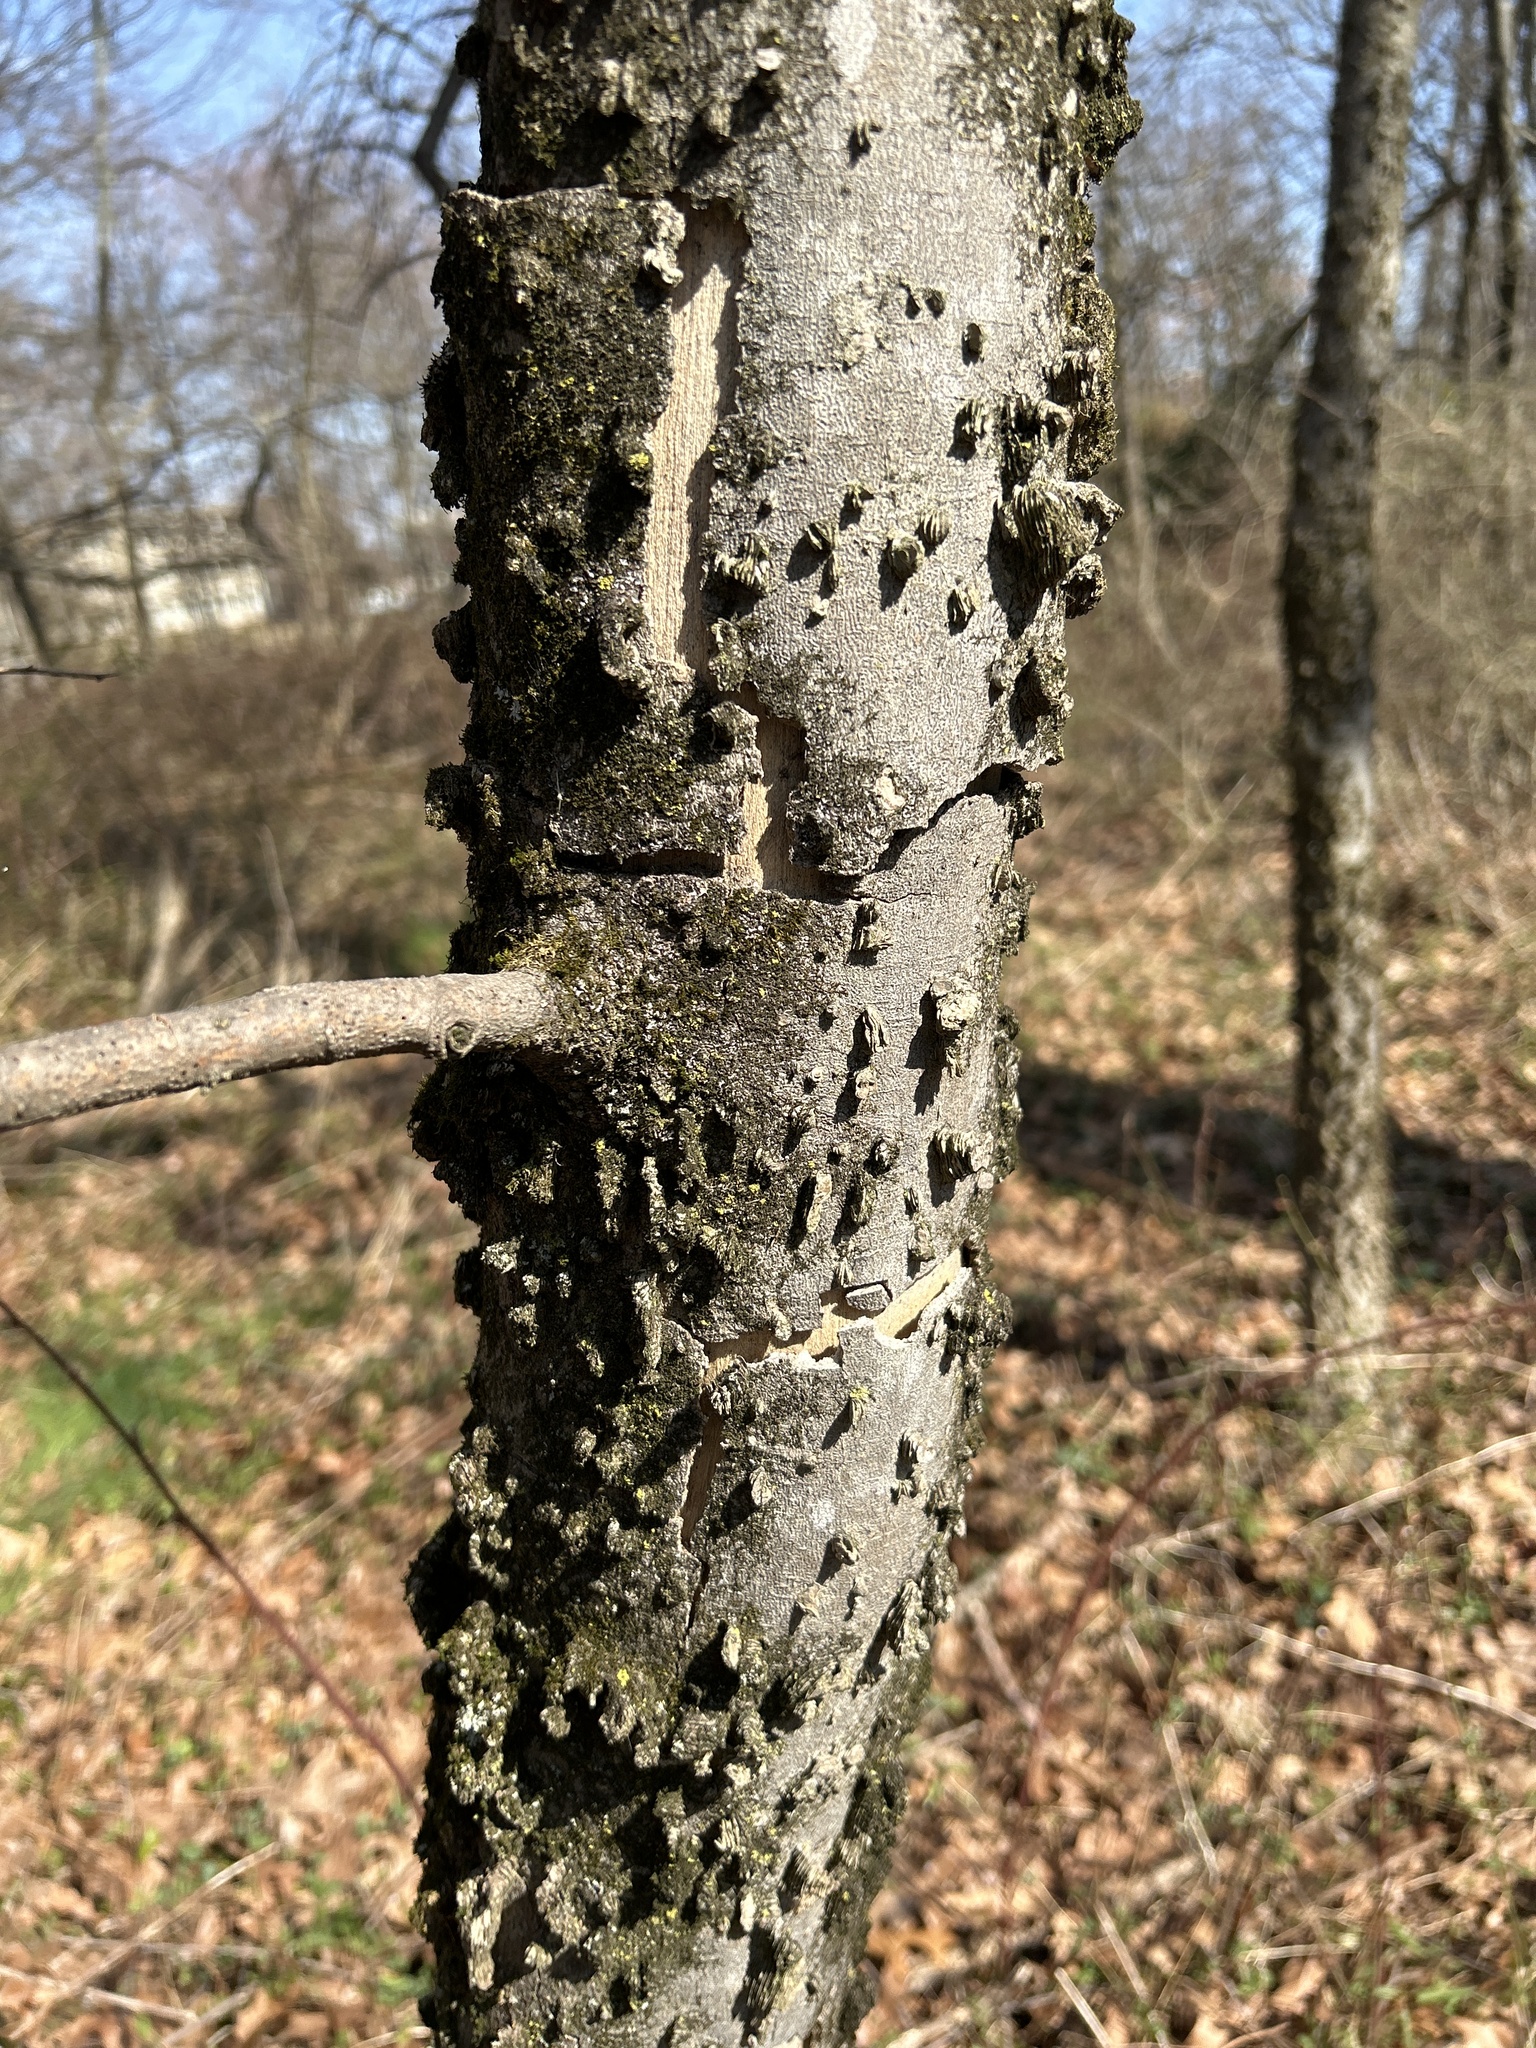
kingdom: Plantae
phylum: Tracheophyta
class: Magnoliopsida
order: Rosales
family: Cannabaceae
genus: Celtis
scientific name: Celtis occidentalis
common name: Common hackberry
